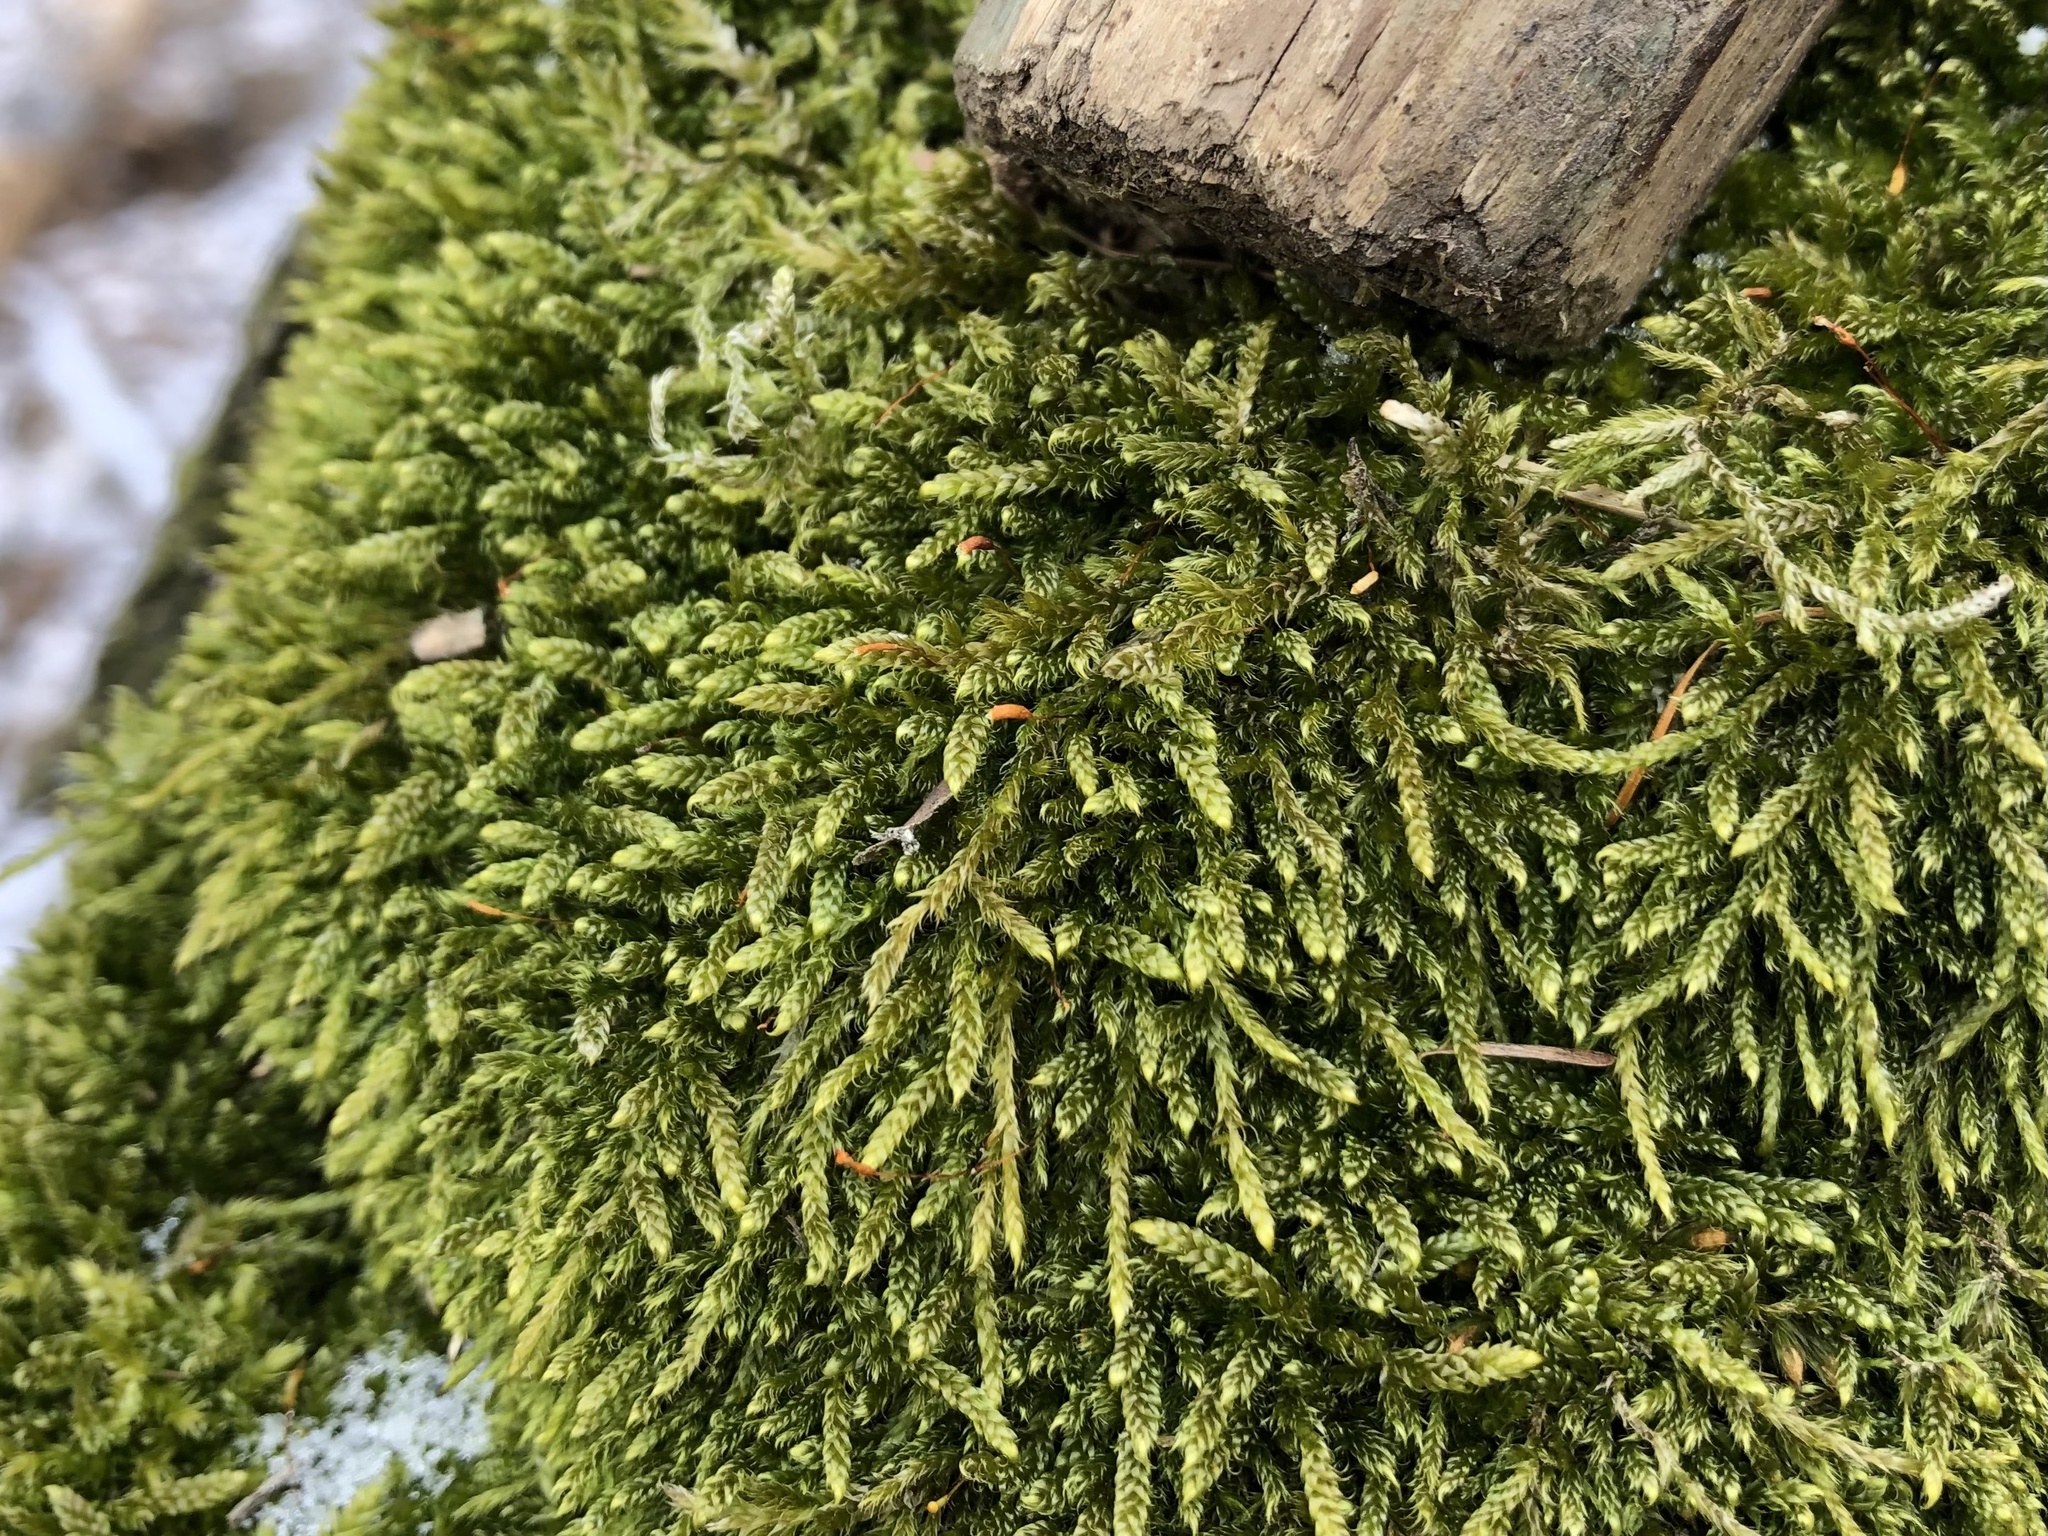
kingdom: Plantae
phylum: Bryophyta
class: Bryopsida
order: Hypnales
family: Hypnaceae
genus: Hypnum
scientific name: Hypnum cupressiforme
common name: Cypress-leaved plait-moss
